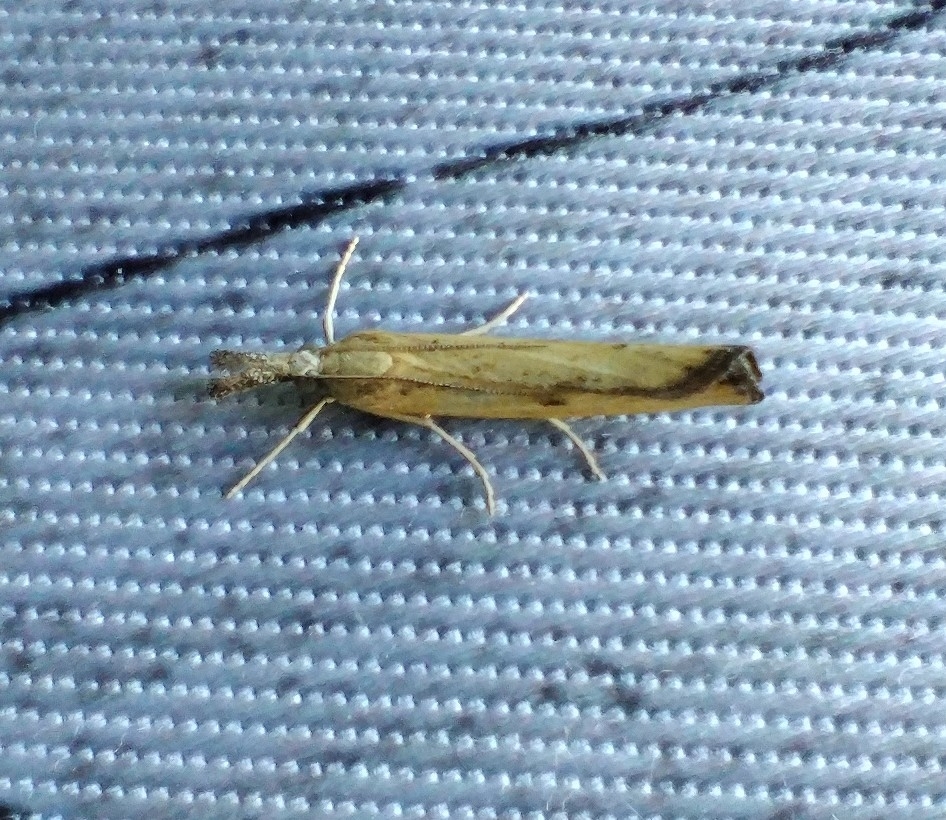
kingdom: Animalia
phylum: Arthropoda
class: Insecta
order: Lepidoptera
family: Crambidae
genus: Agriphila
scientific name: Agriphila inquinatella
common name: Barred grass-veneer
